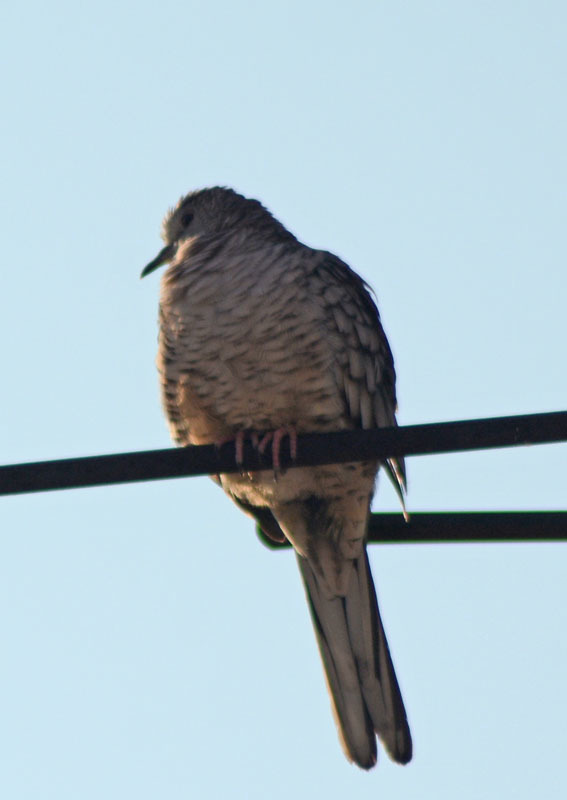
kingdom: Animalia
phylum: Chordata
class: Aves
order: Columbiformes
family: Columbidae
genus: Columbina
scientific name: Columbina inca
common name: Inca dove
